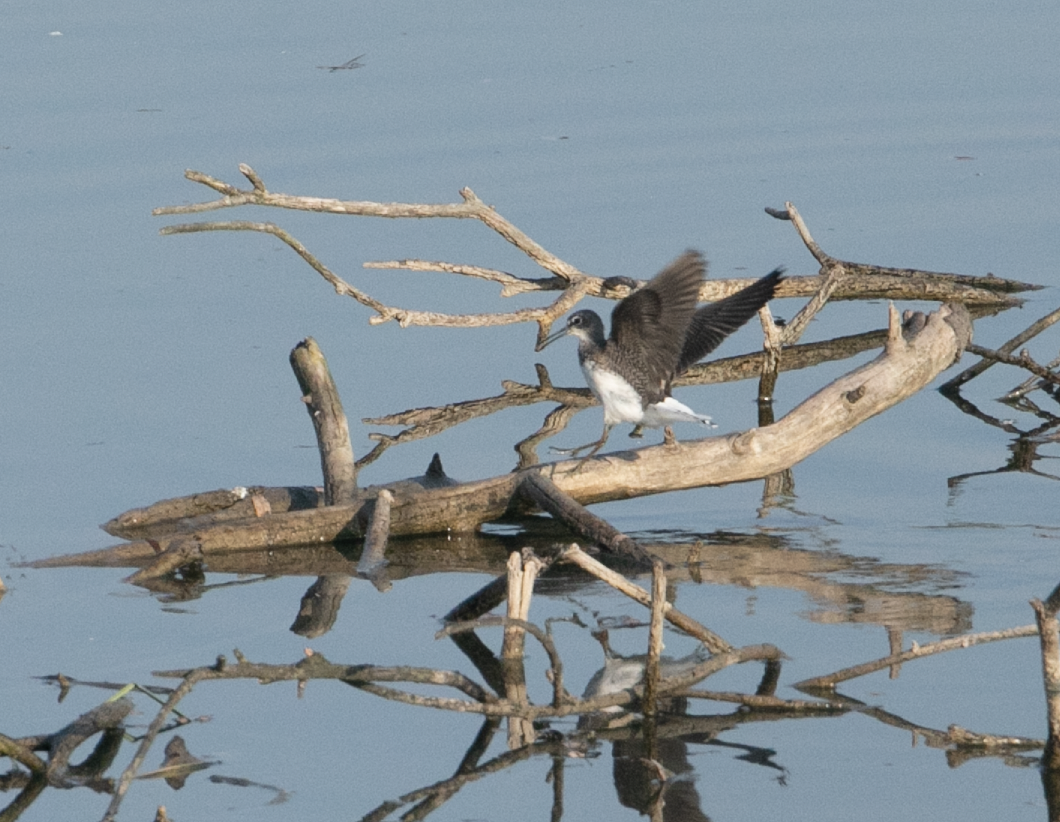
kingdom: Animalia
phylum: Chordata
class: Aves
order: Charadriiformes
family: Scolopacidae
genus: Tringa
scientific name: Tringa ochropus
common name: Green sandpiper
